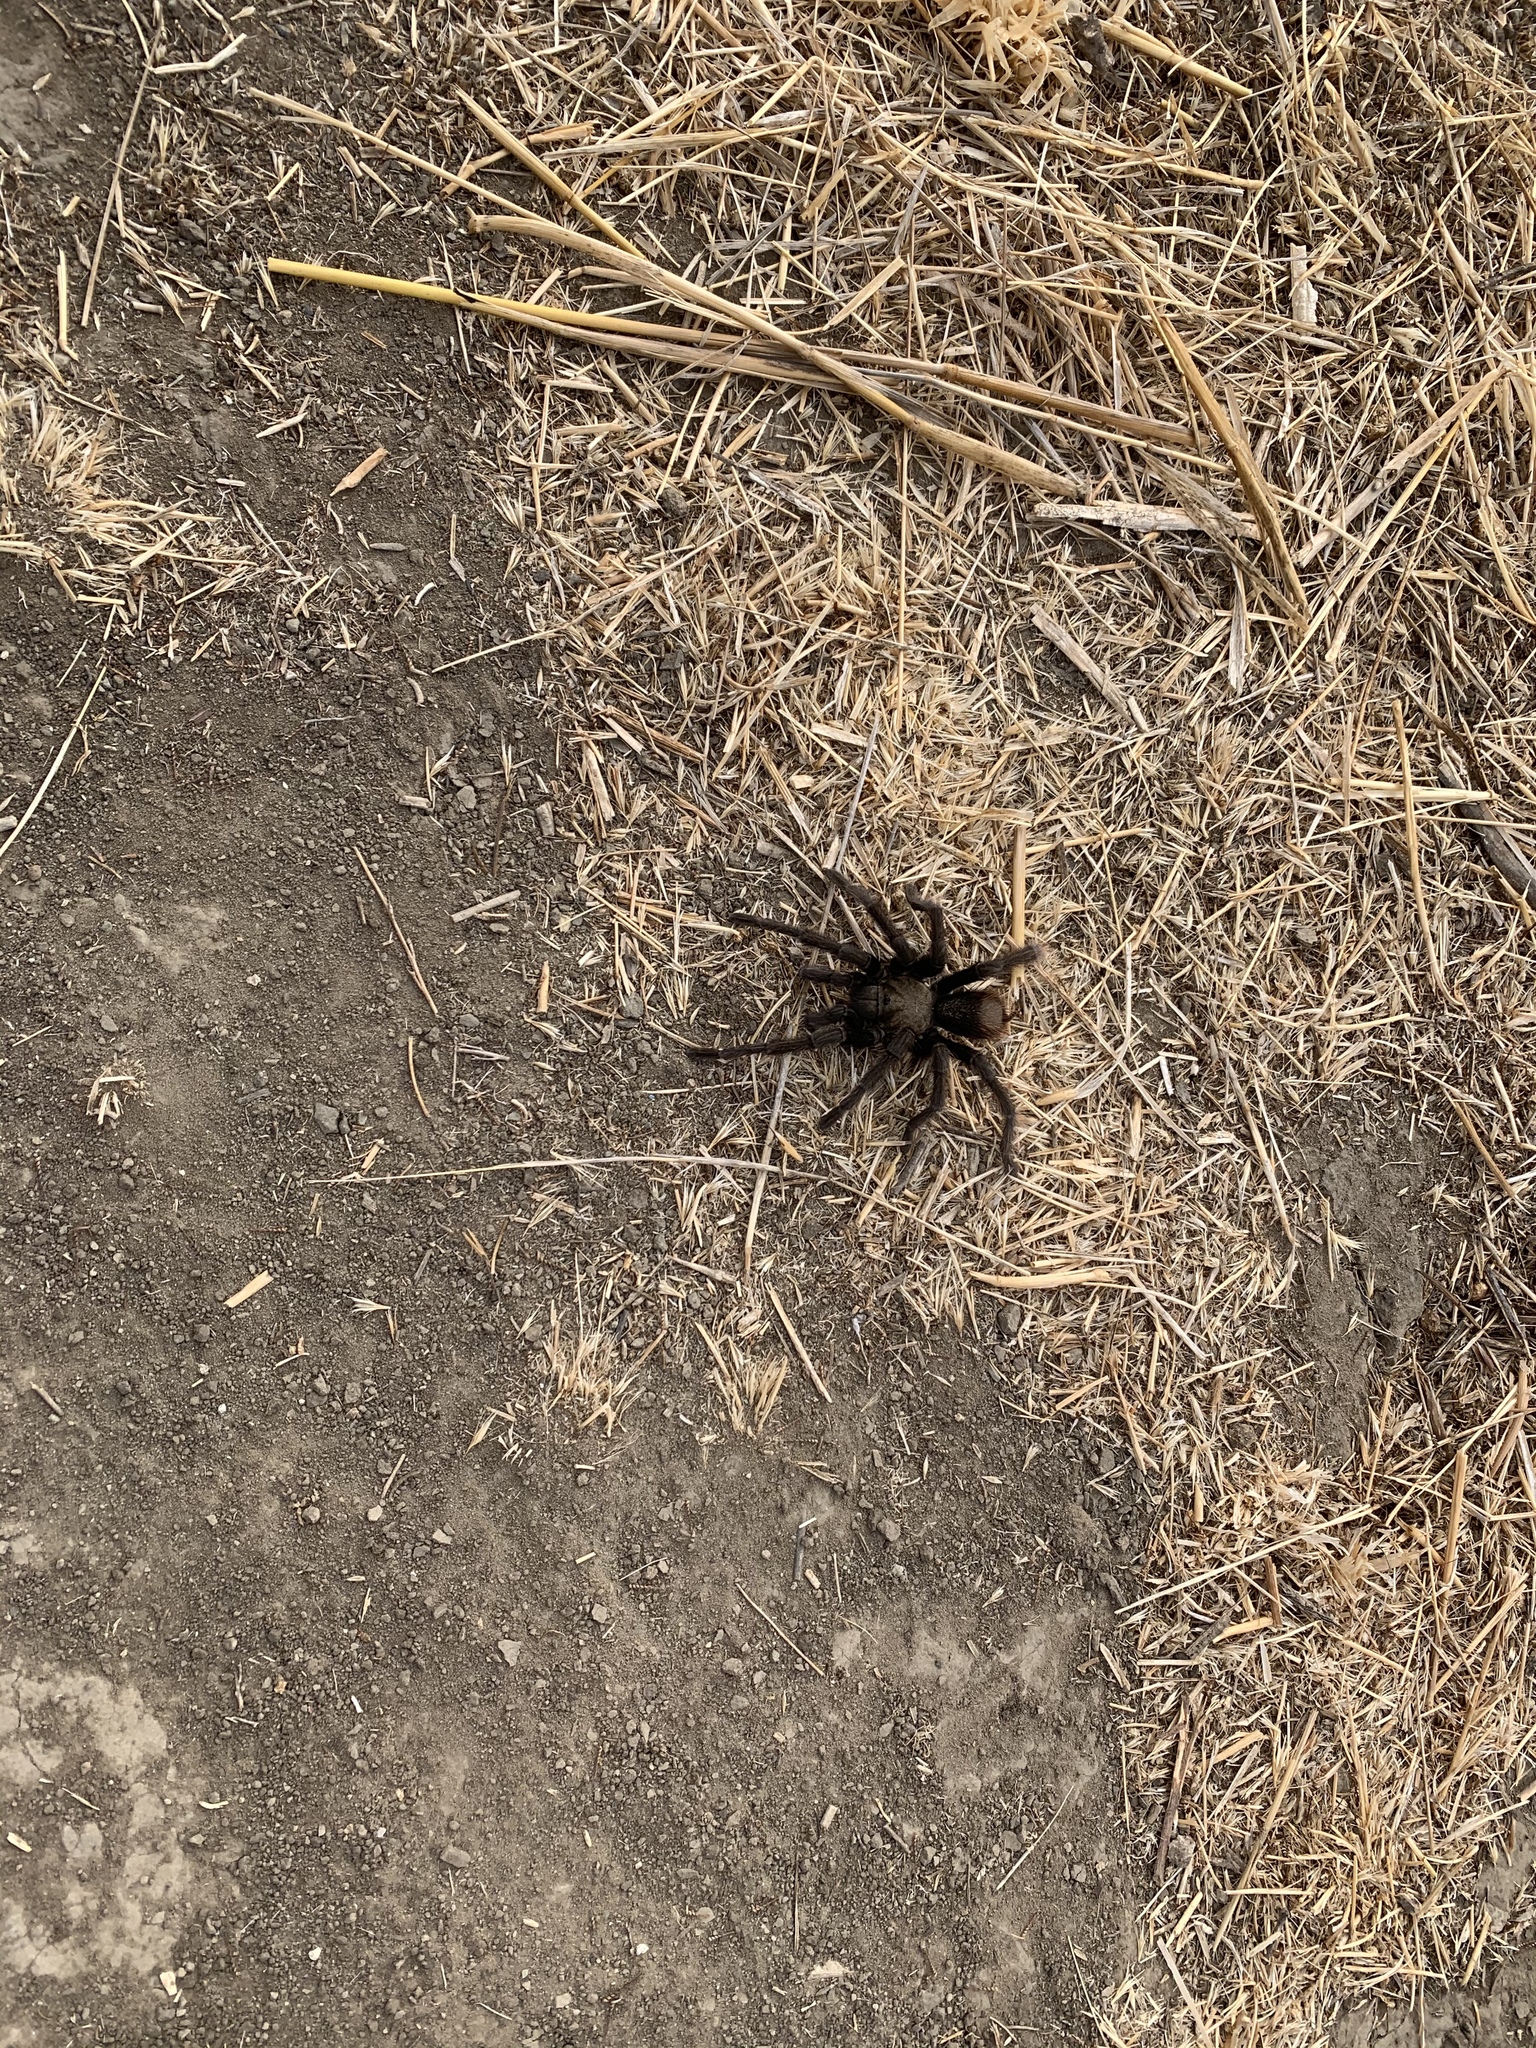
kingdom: Animalia
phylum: Arthropoda
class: Arachnida
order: Araneae
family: Theraphosidae
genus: Aphonopelma
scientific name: Aphonopelma eutylenum
